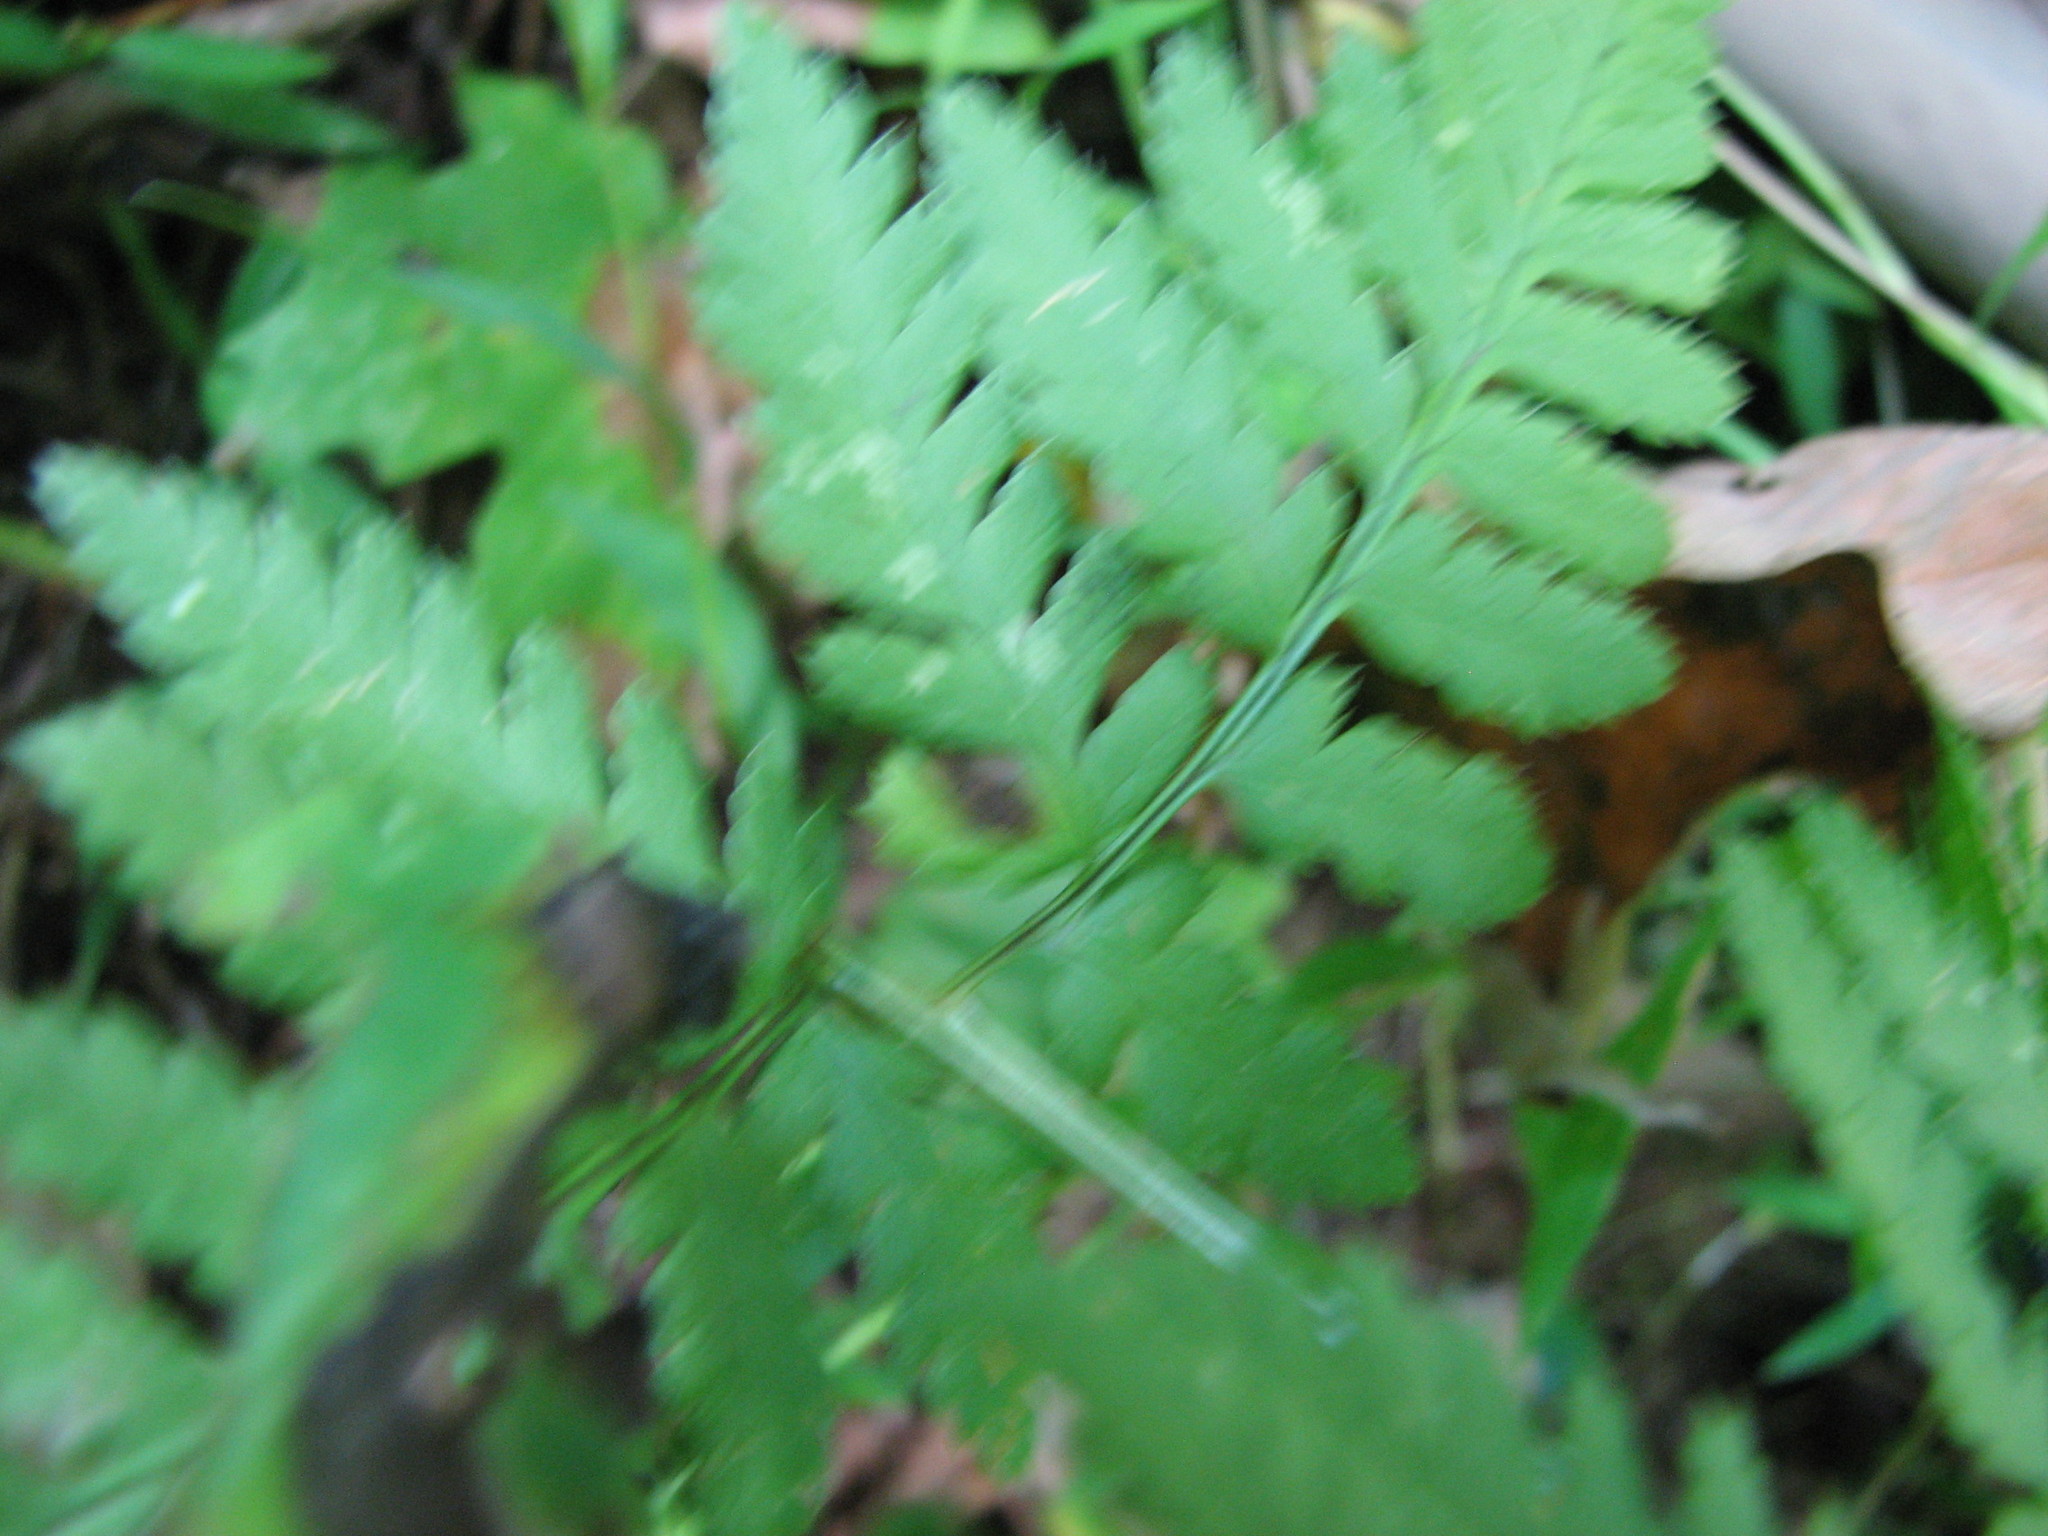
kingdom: Plantae
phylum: Tracheophyta
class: Polypodiopsida
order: Polypodiales
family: Dryopteridaceae
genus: Dryopteris
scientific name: Dryopteris carthusiana
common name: Narrow buckler-fern
